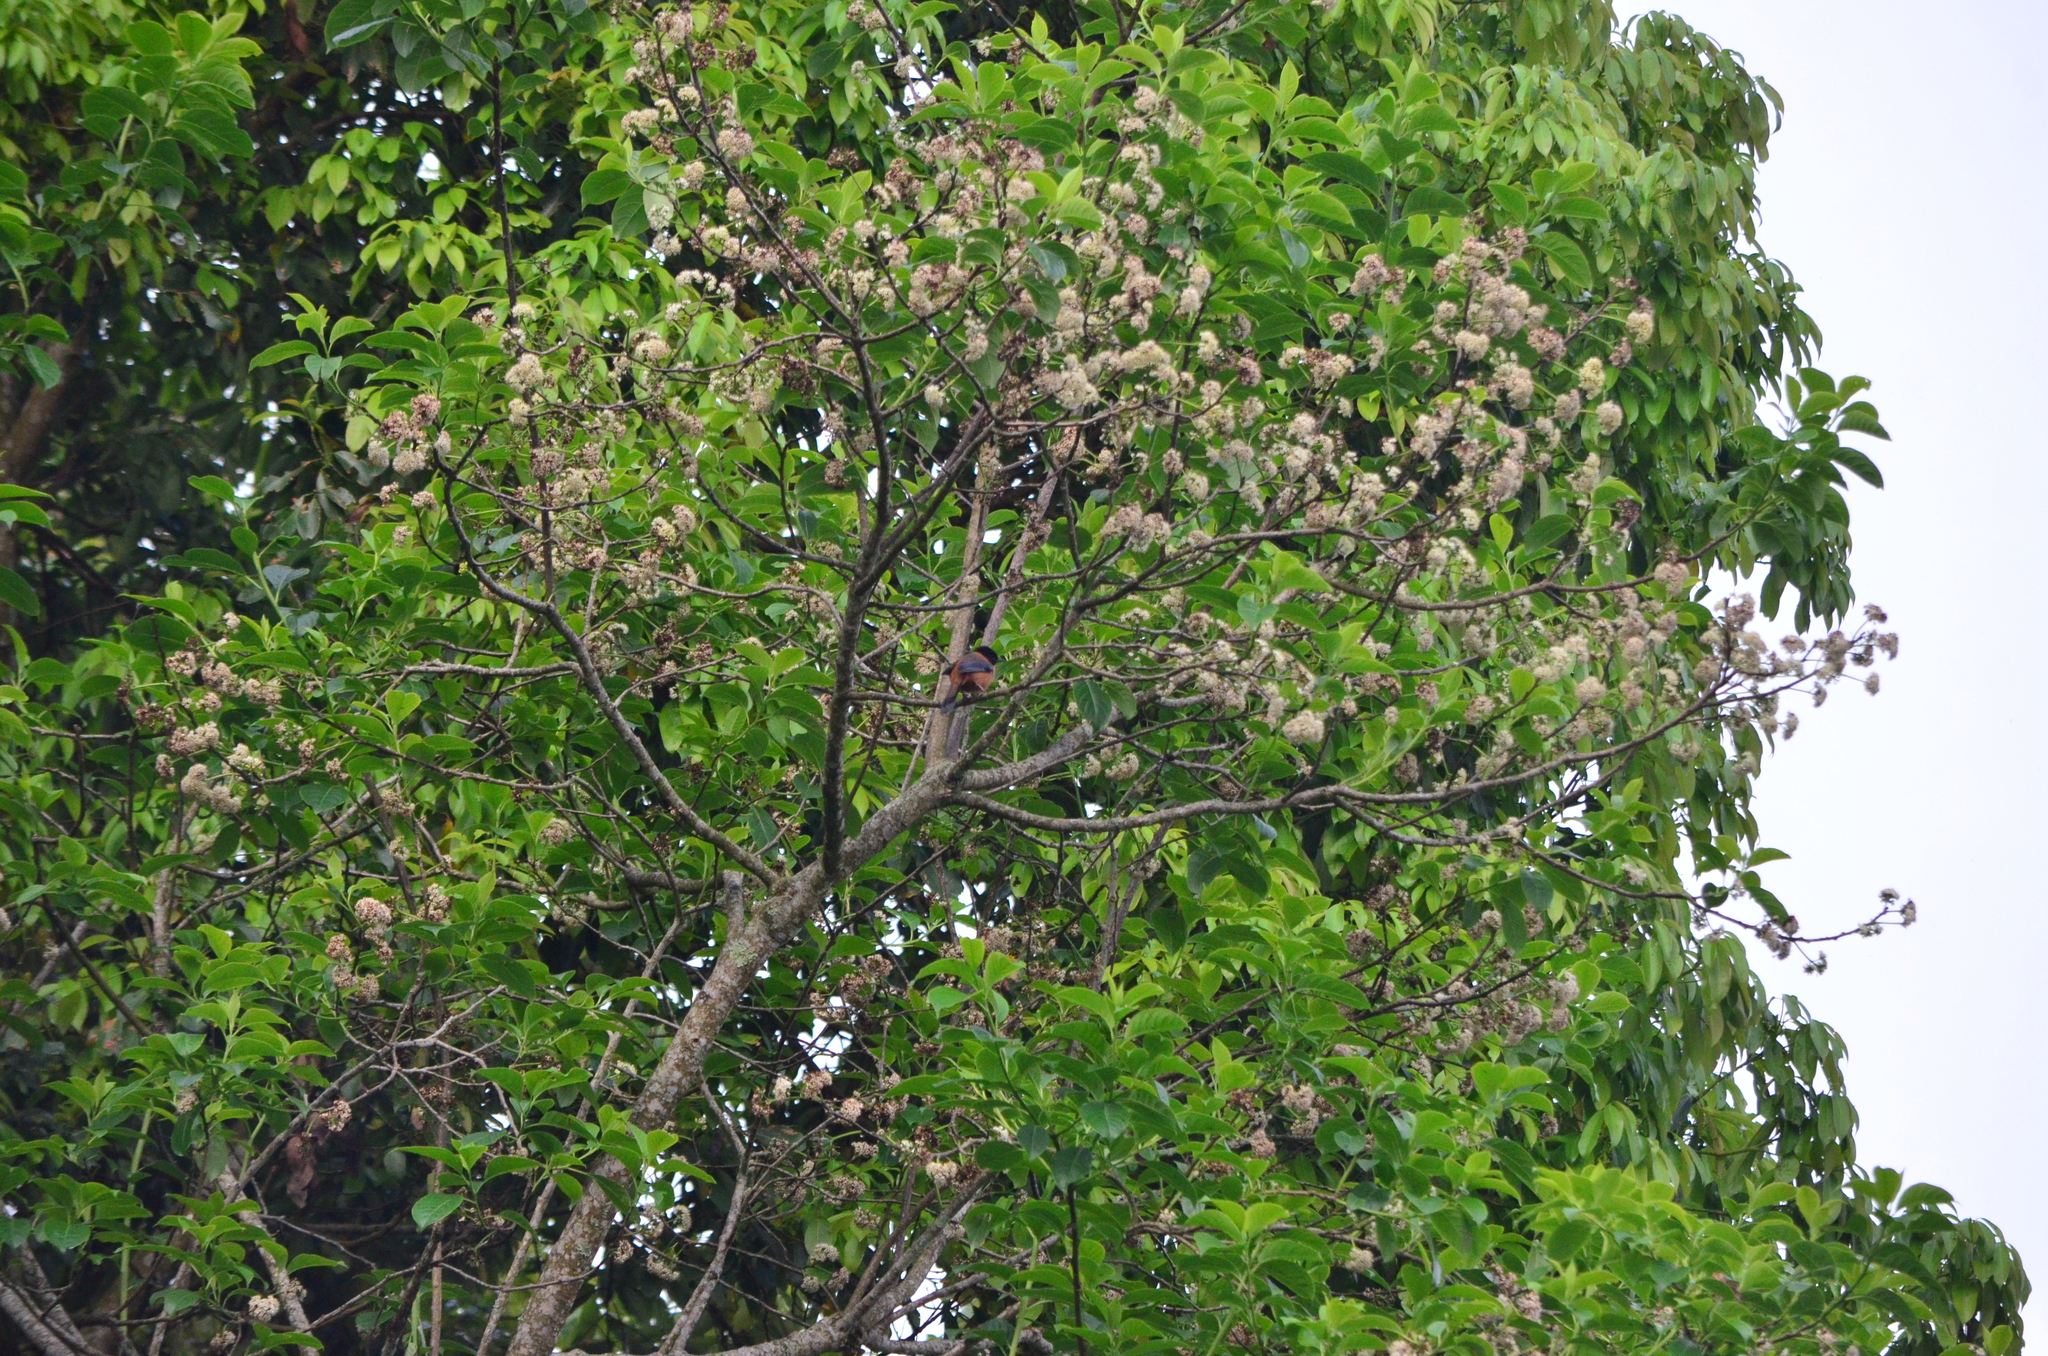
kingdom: Animalia
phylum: Chordata
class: Aves
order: Passeriformes
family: Leiothrichidae
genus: Heterophasia
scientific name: Heterophasia capistrata
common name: Rufous sibia
